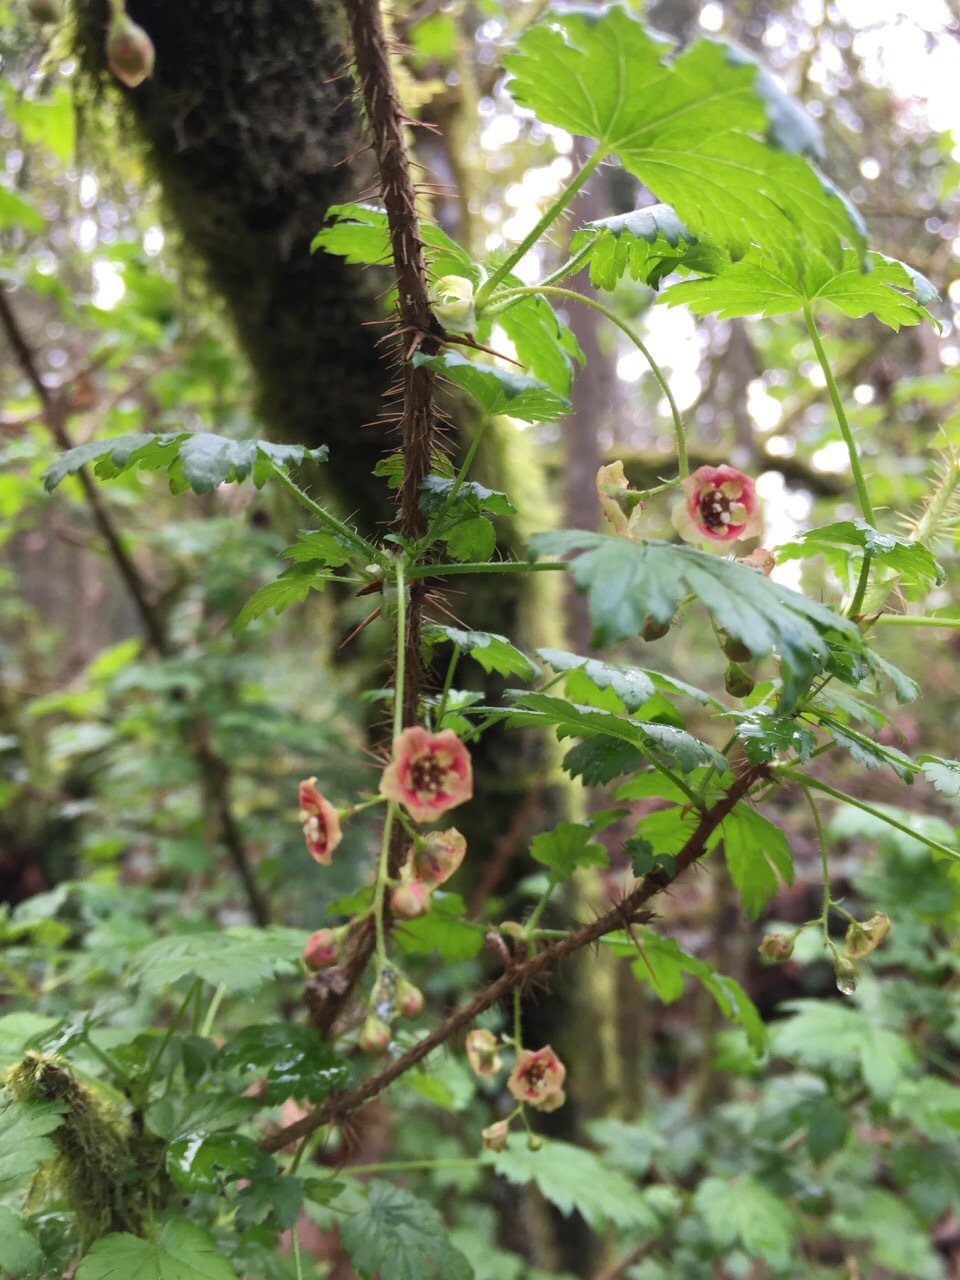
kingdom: Plantae
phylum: Tracheophyta
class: Magnoliopsida
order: Saxifragales
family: Grossulariaceae
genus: Ribes
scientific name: Ribes lacustre
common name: Black gooseberry
